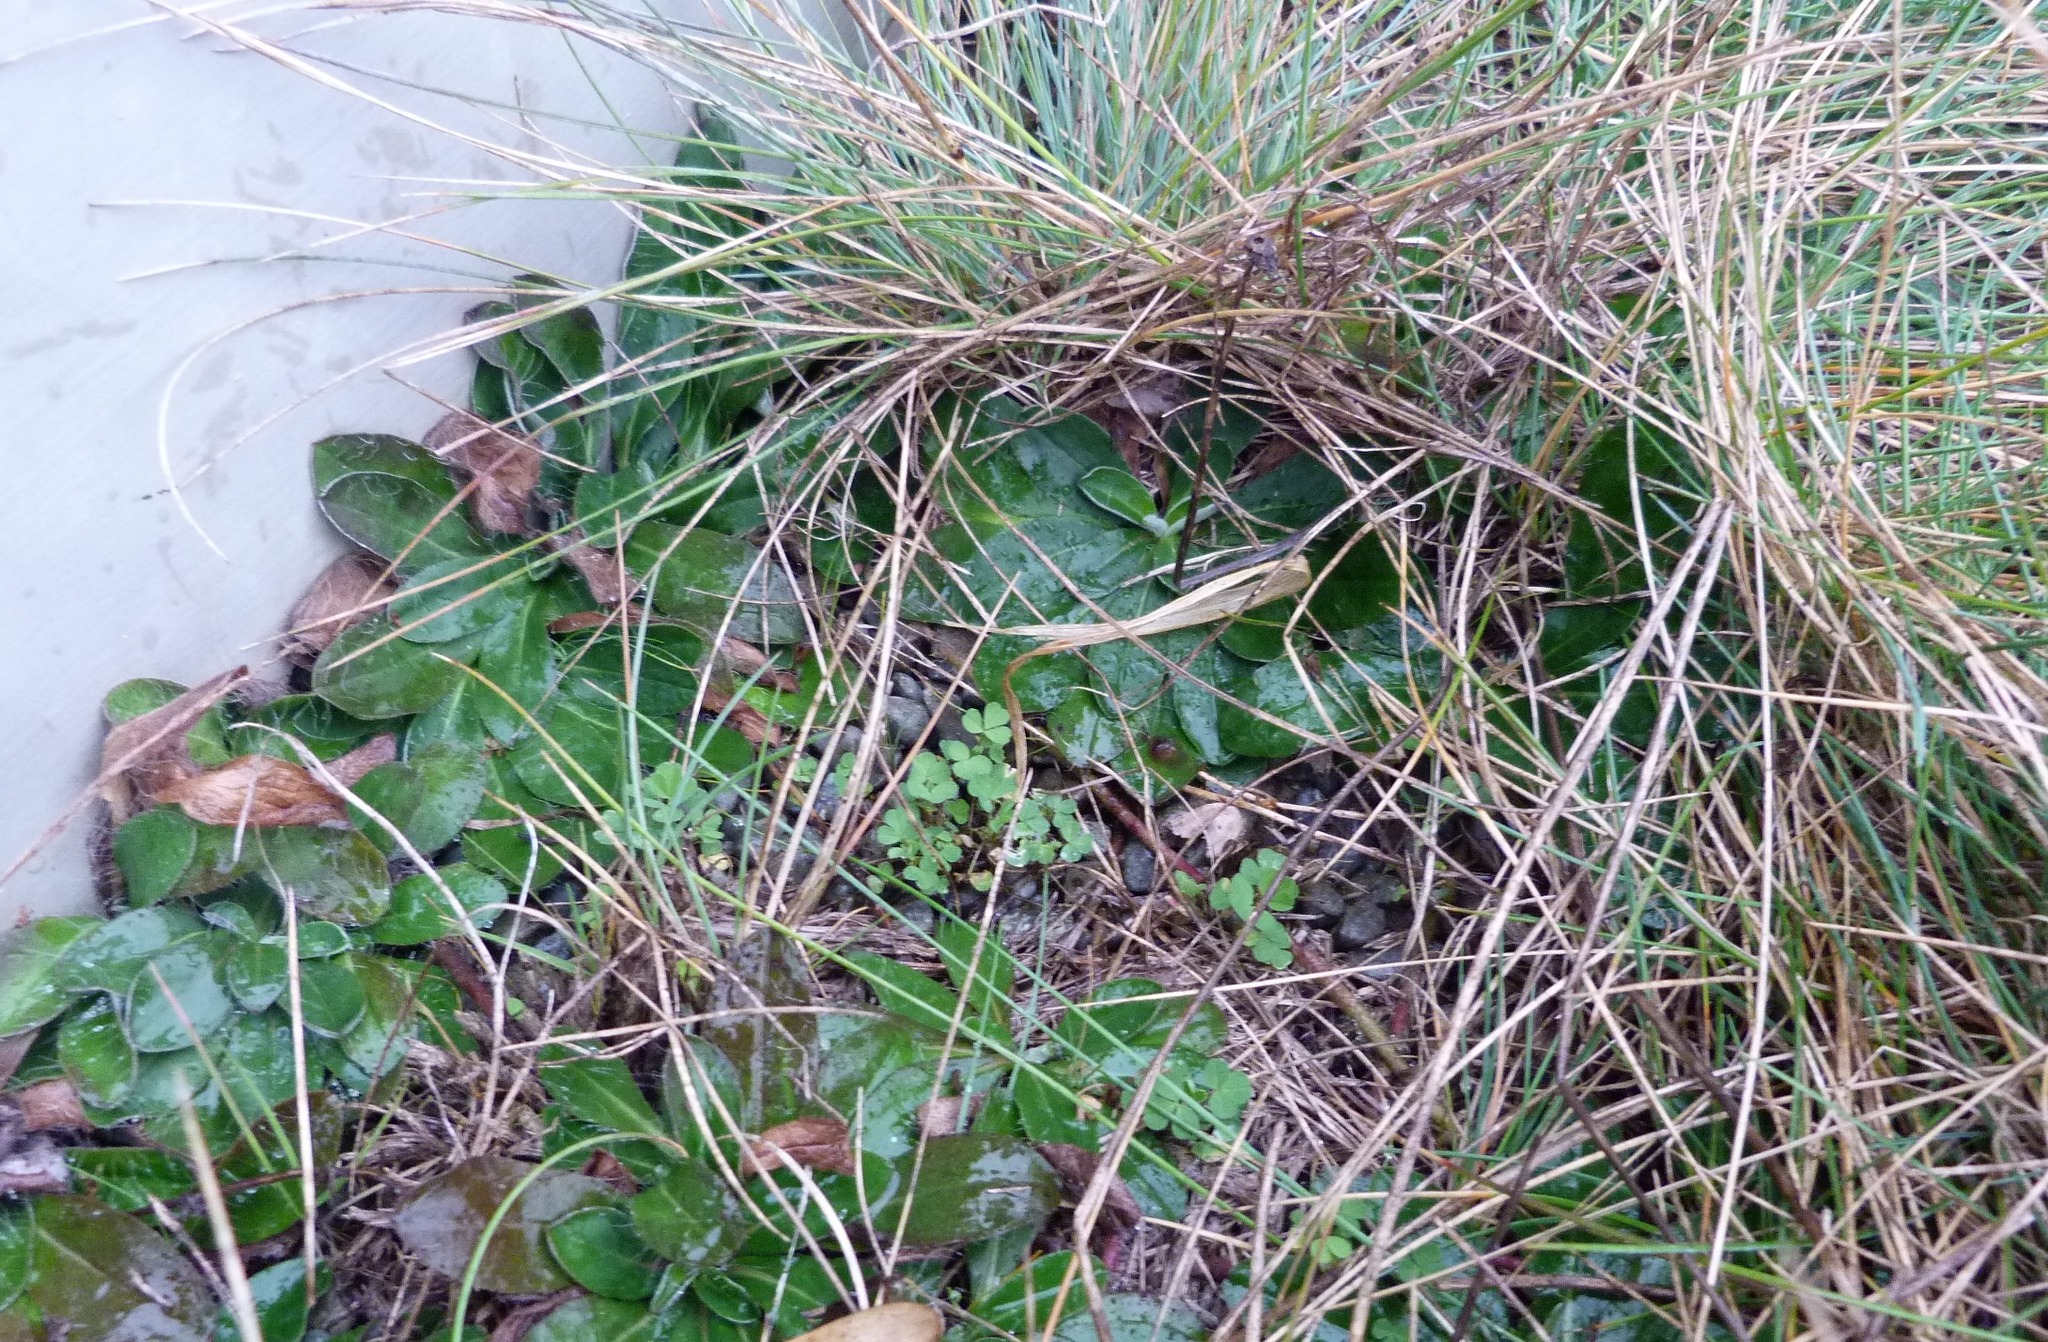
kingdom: Plantae
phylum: Tracheophyta
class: Magnoliopsida
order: Asterales
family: Asteraceae
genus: Pilosella
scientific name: Pilosella officinarum
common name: Mouse-ear hawkweed
